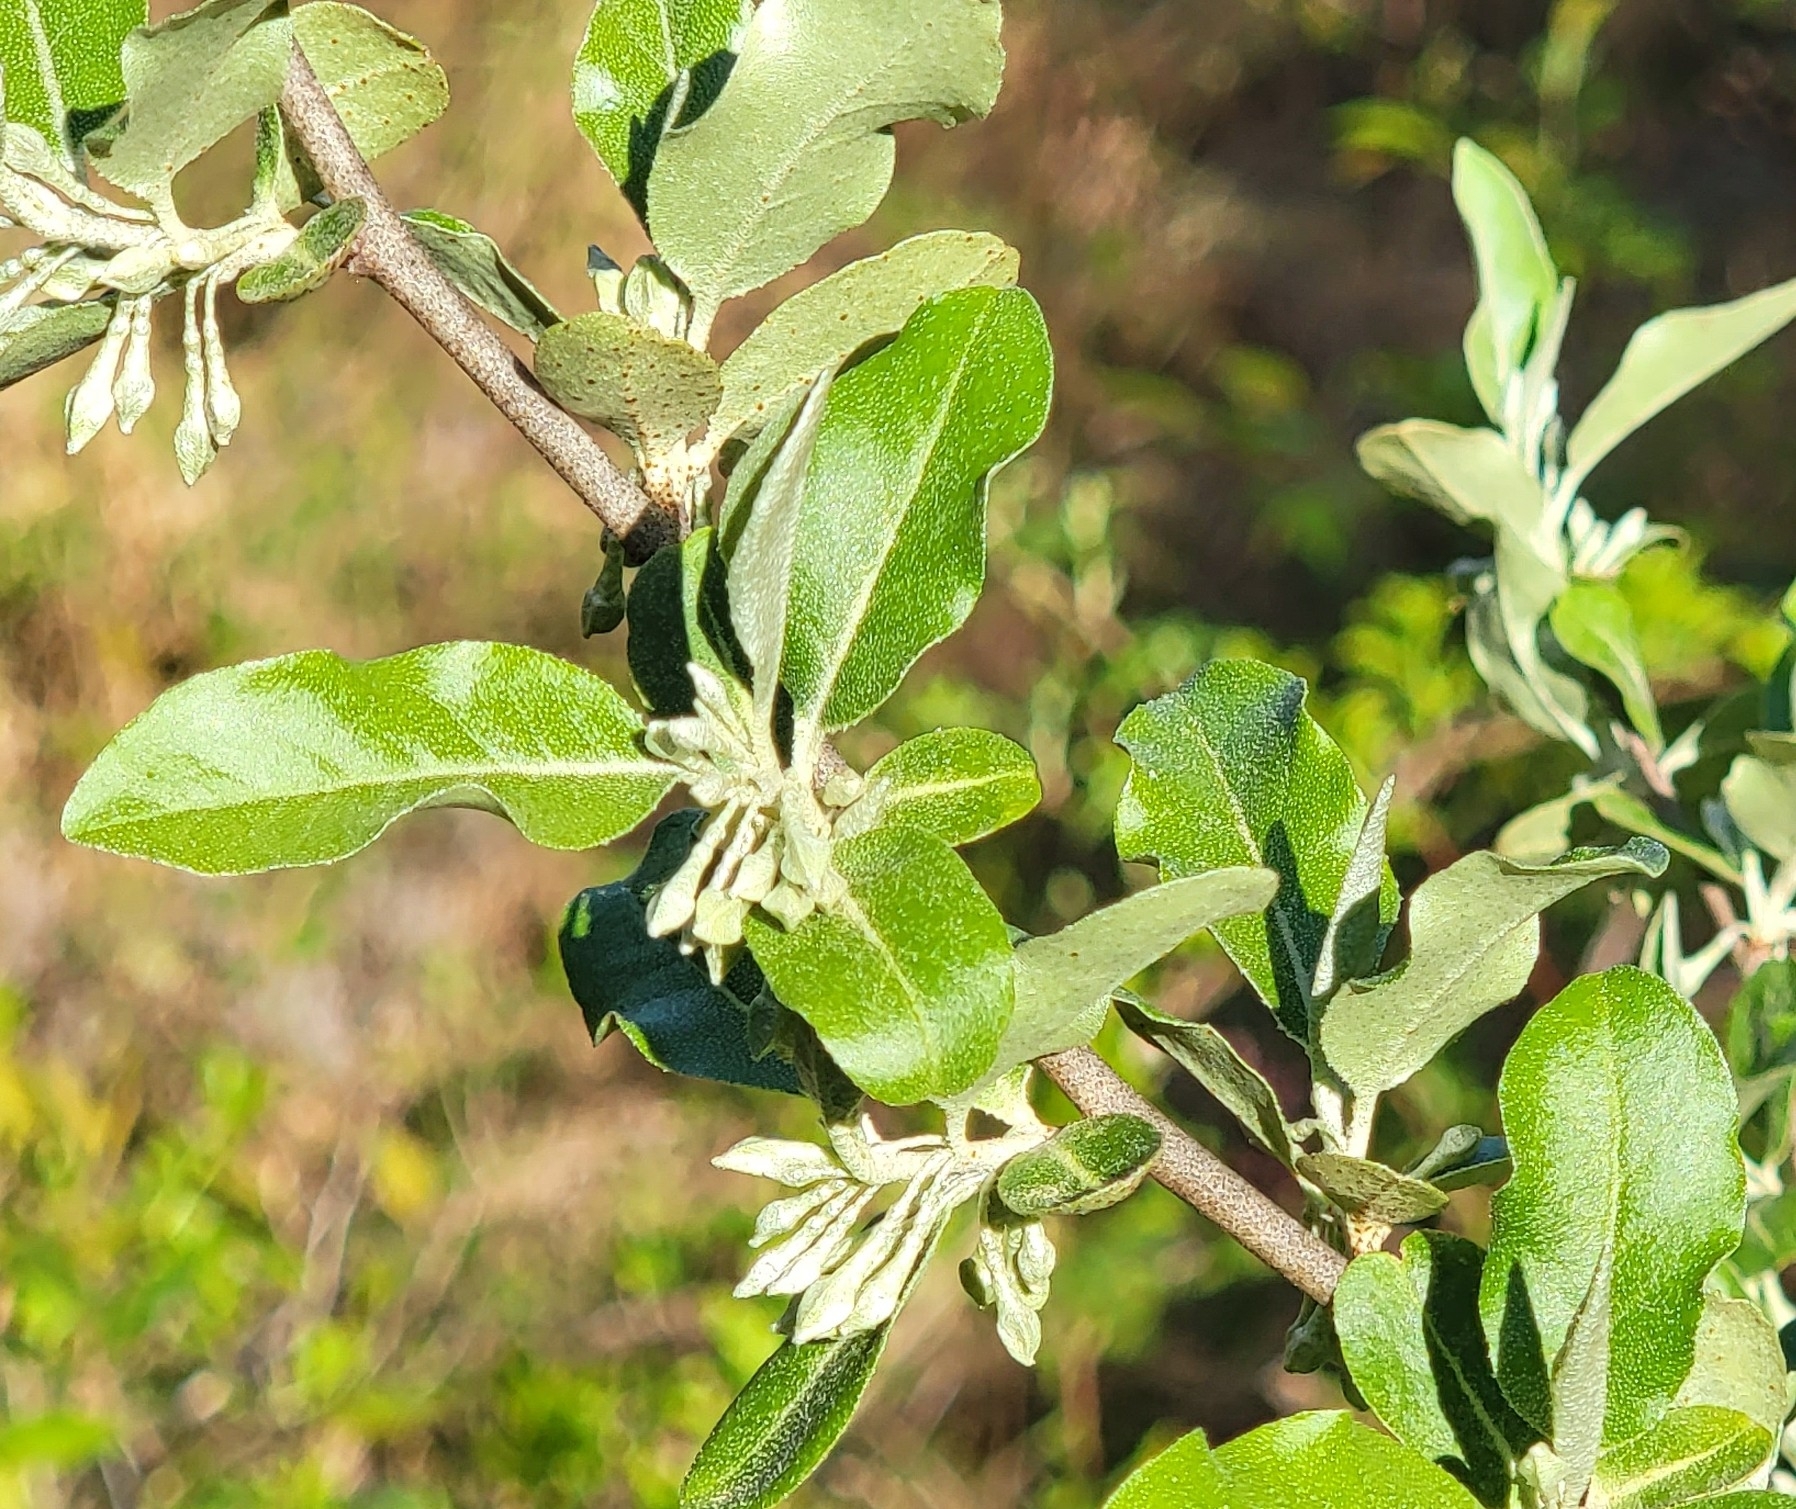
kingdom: Plantae
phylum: Tracheophyta
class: Magnoliopsida
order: Rosales
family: Elaeagnaceae
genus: Elaeagnus
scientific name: Elaeagnus umbellata
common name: Autumn olive
